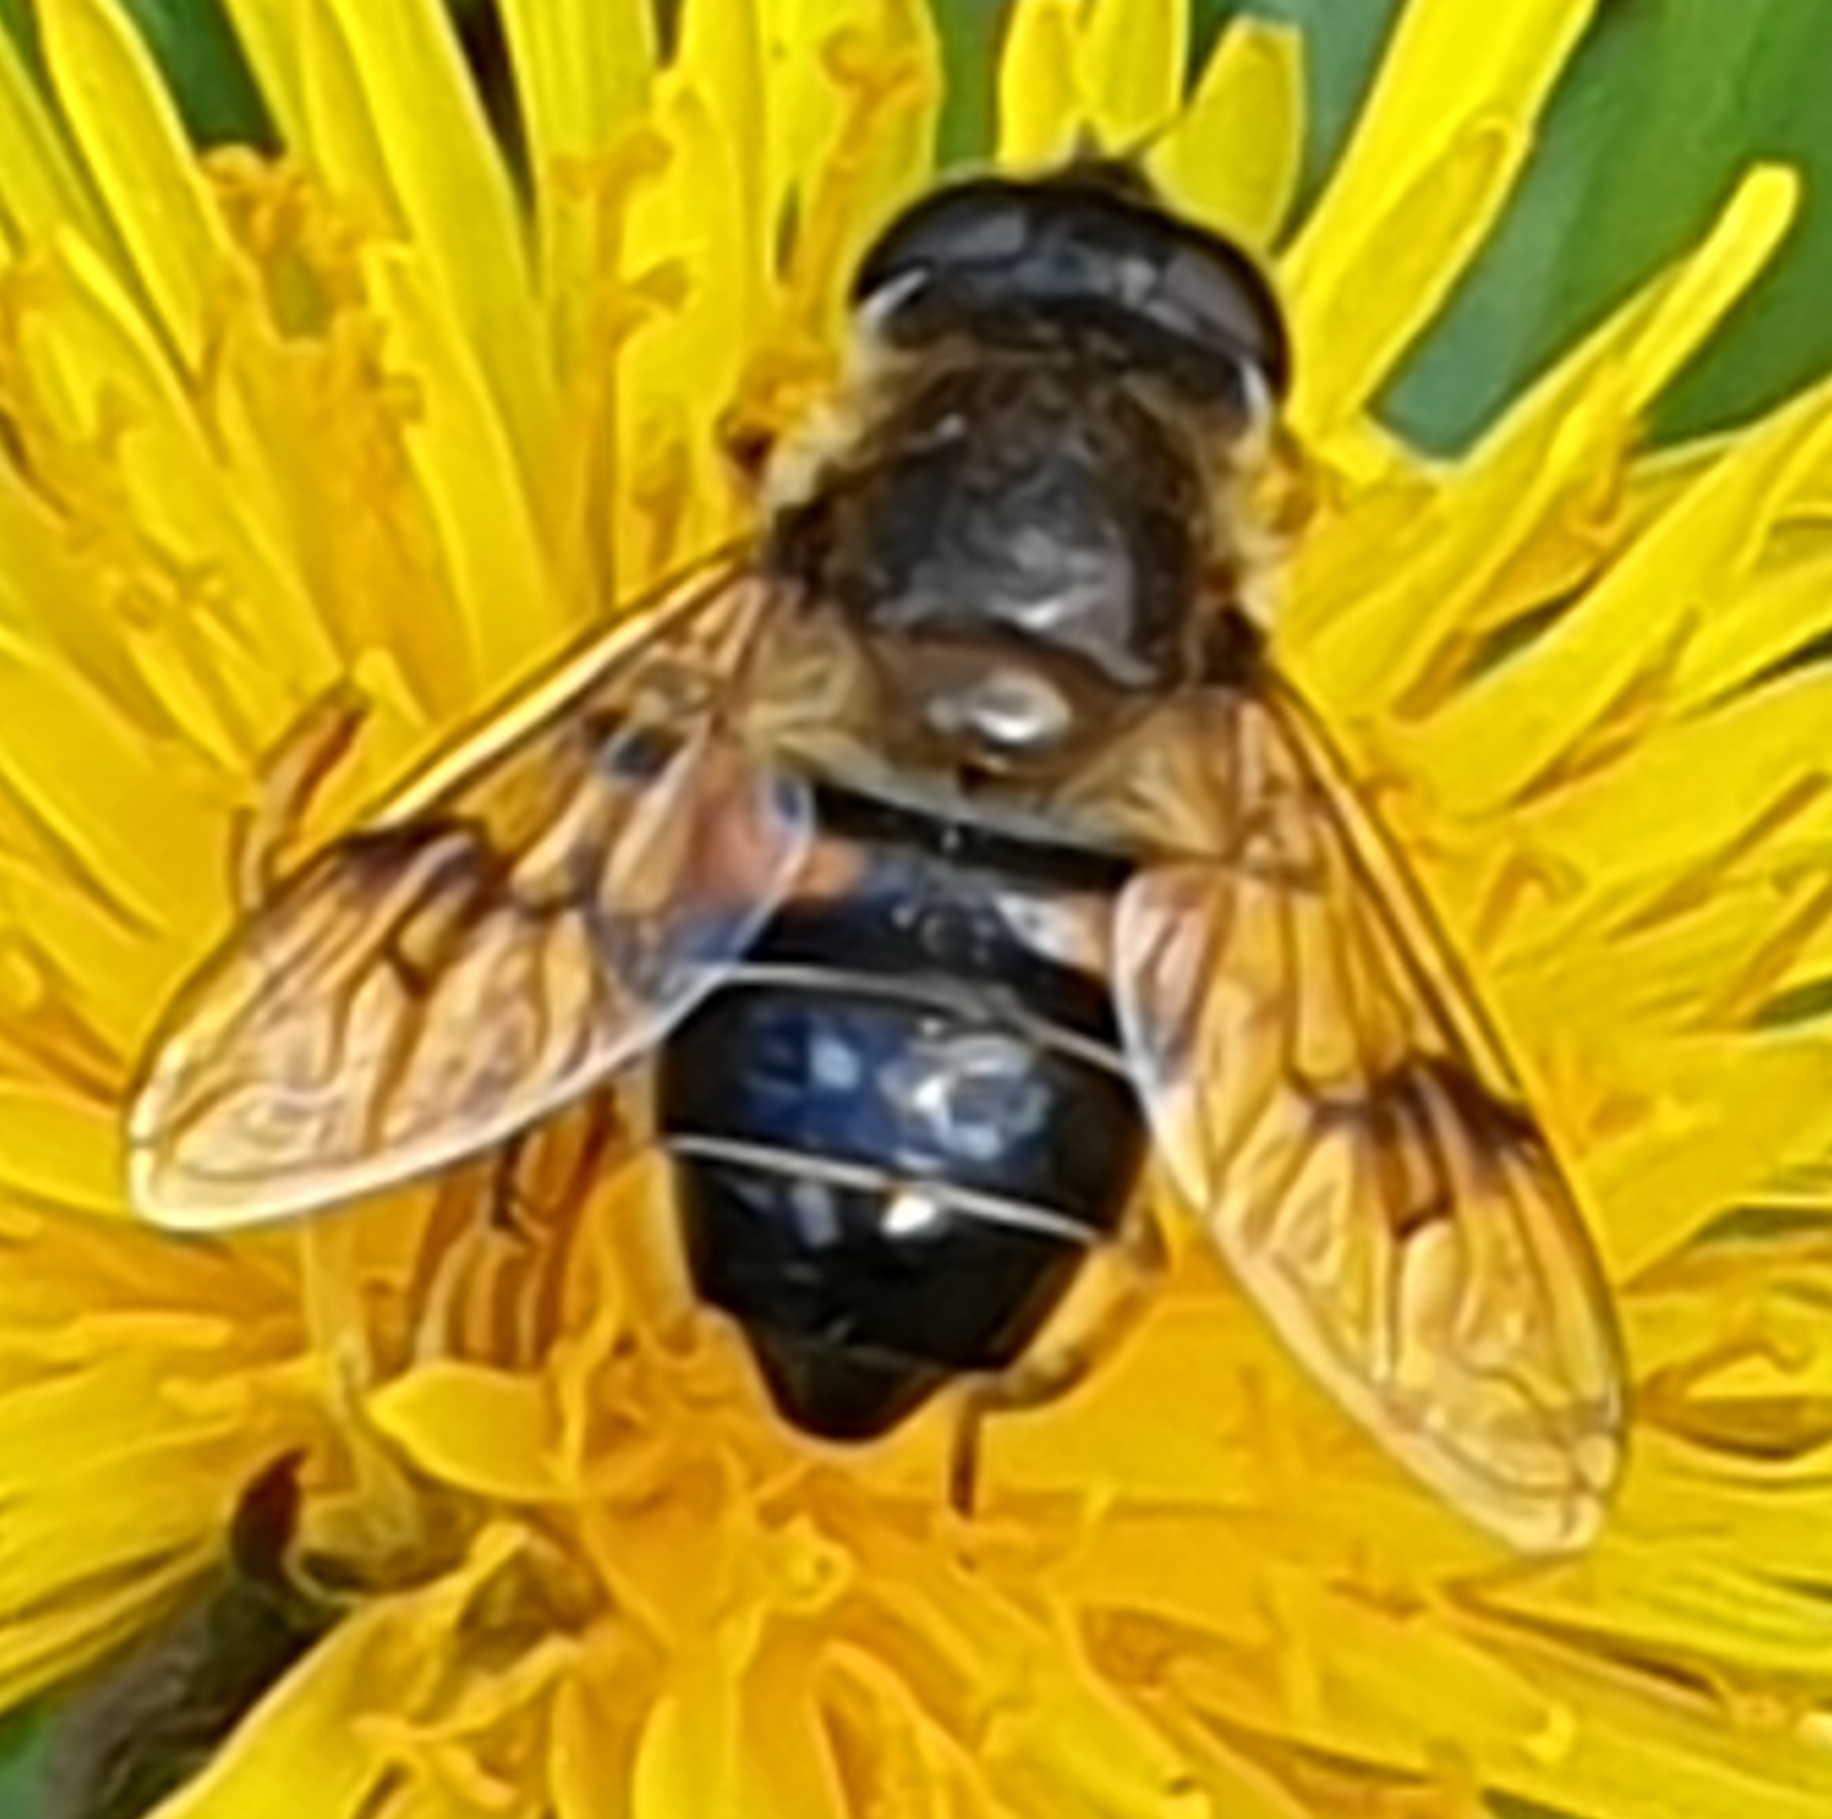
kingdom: Animalia
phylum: Arthropoda
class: Insecta
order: Diptera
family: Syrphidae
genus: Eristalis
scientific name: Eristalis tenax
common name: Drone fly
